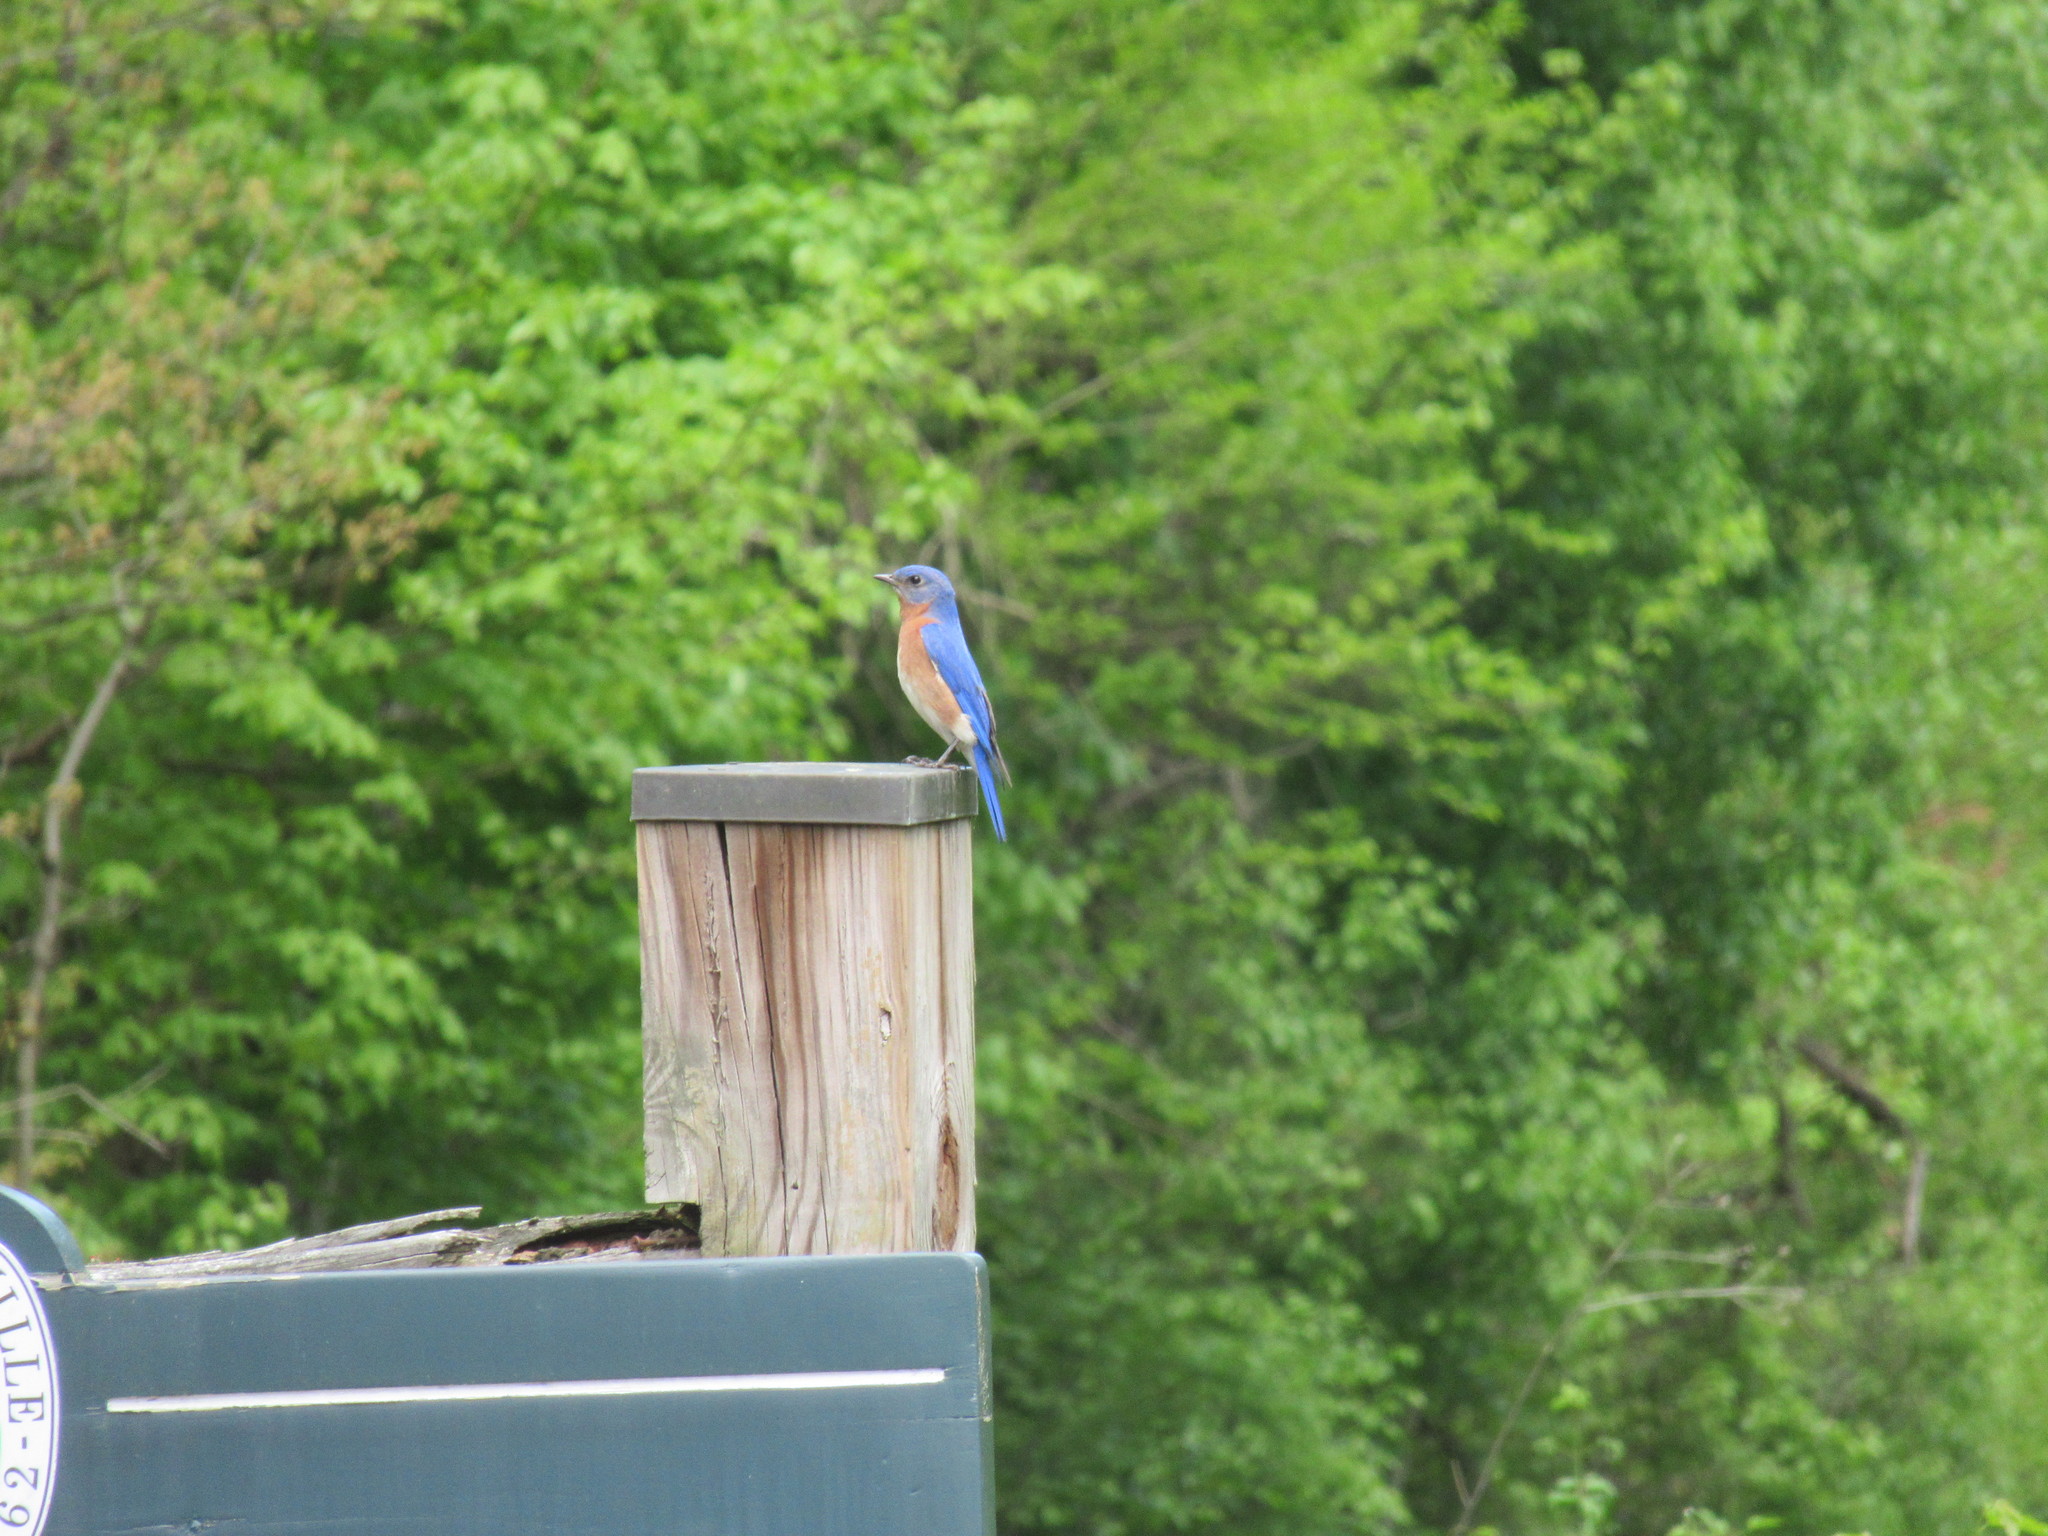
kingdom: Animalia
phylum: Chordata
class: Aves
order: Passeriformes
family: Turdidae
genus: Sialia
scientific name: Sialia sialis
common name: Eastern bluebird
